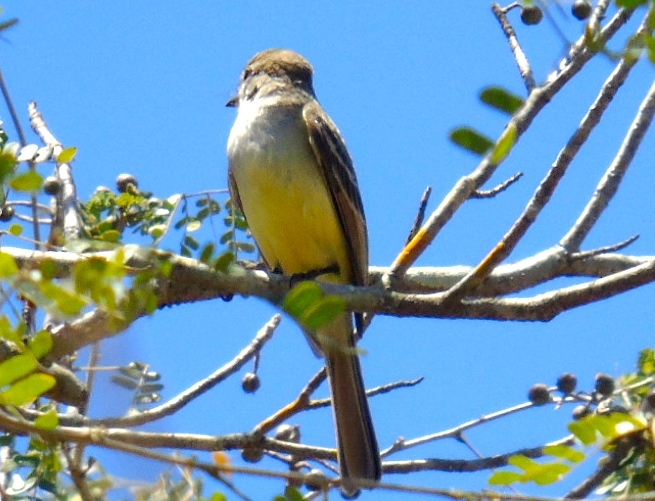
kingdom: Animalia
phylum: Chordata
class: Aves
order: Passeriformes
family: Tyrannidae
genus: Myiarchus
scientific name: Myiarchus
